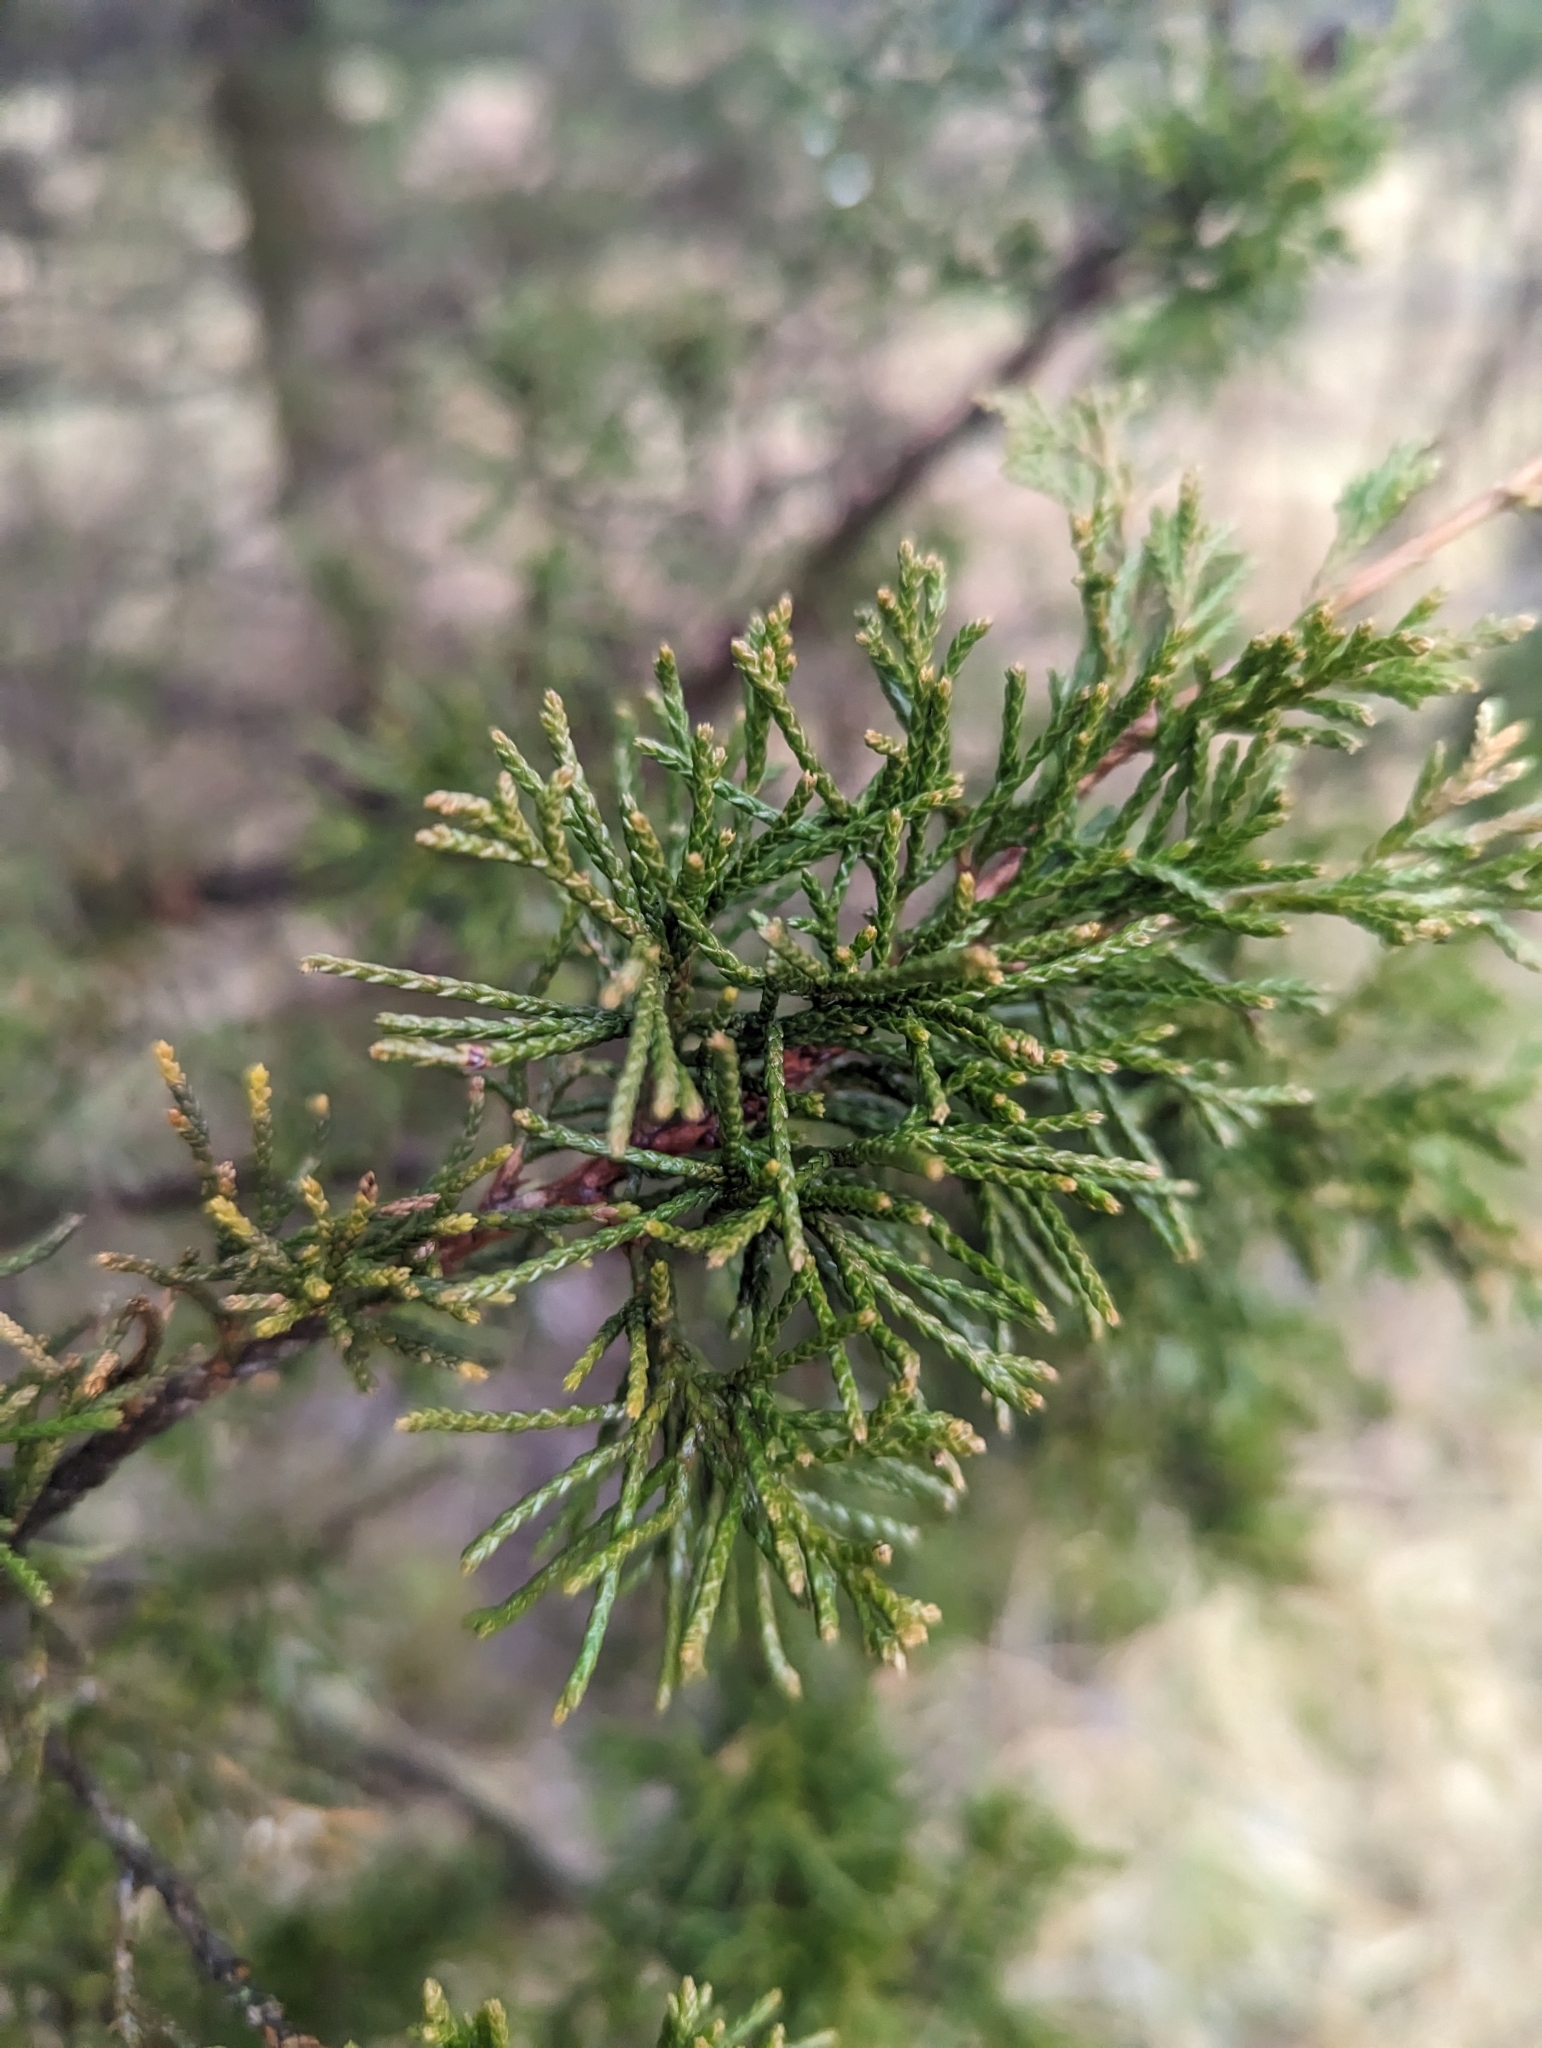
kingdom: Plantae
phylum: Tracheophyta
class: Pinopsida
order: Pinales
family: Cupressaceae
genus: Juniperus
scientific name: Juniperus virginiana
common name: Red juniper
